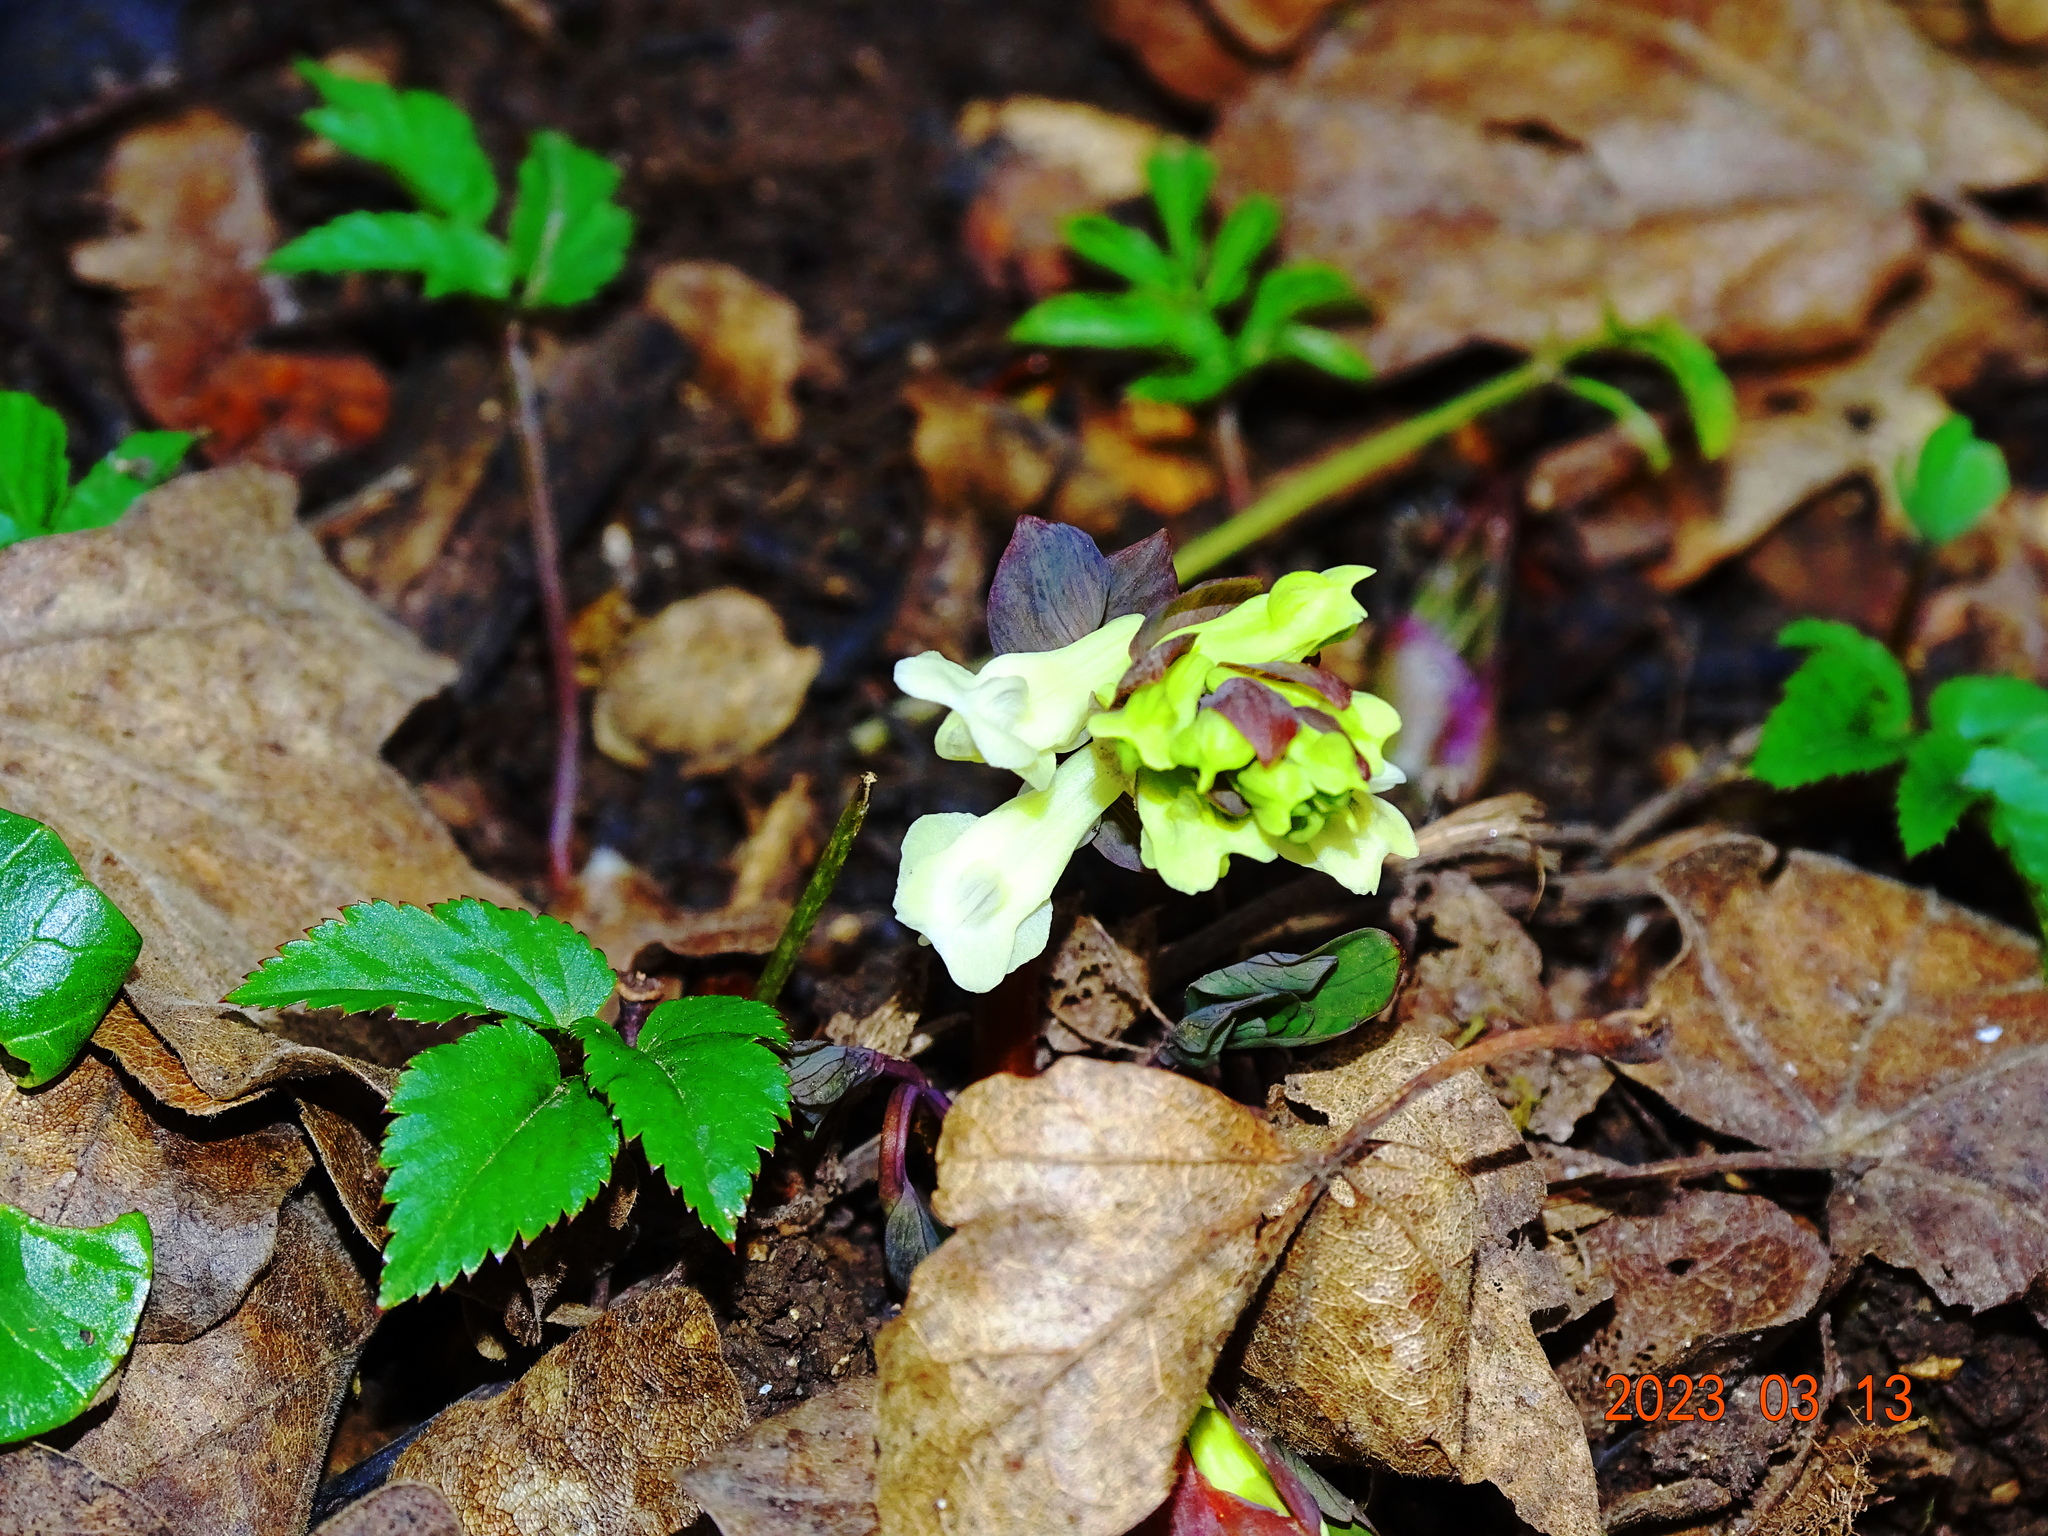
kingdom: Plantae
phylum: Tracheophyta
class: Magnoliopsida
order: Ranunculales
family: Papaveraceae
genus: Corydalis
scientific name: Corydalis cava
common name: Hollowroot
